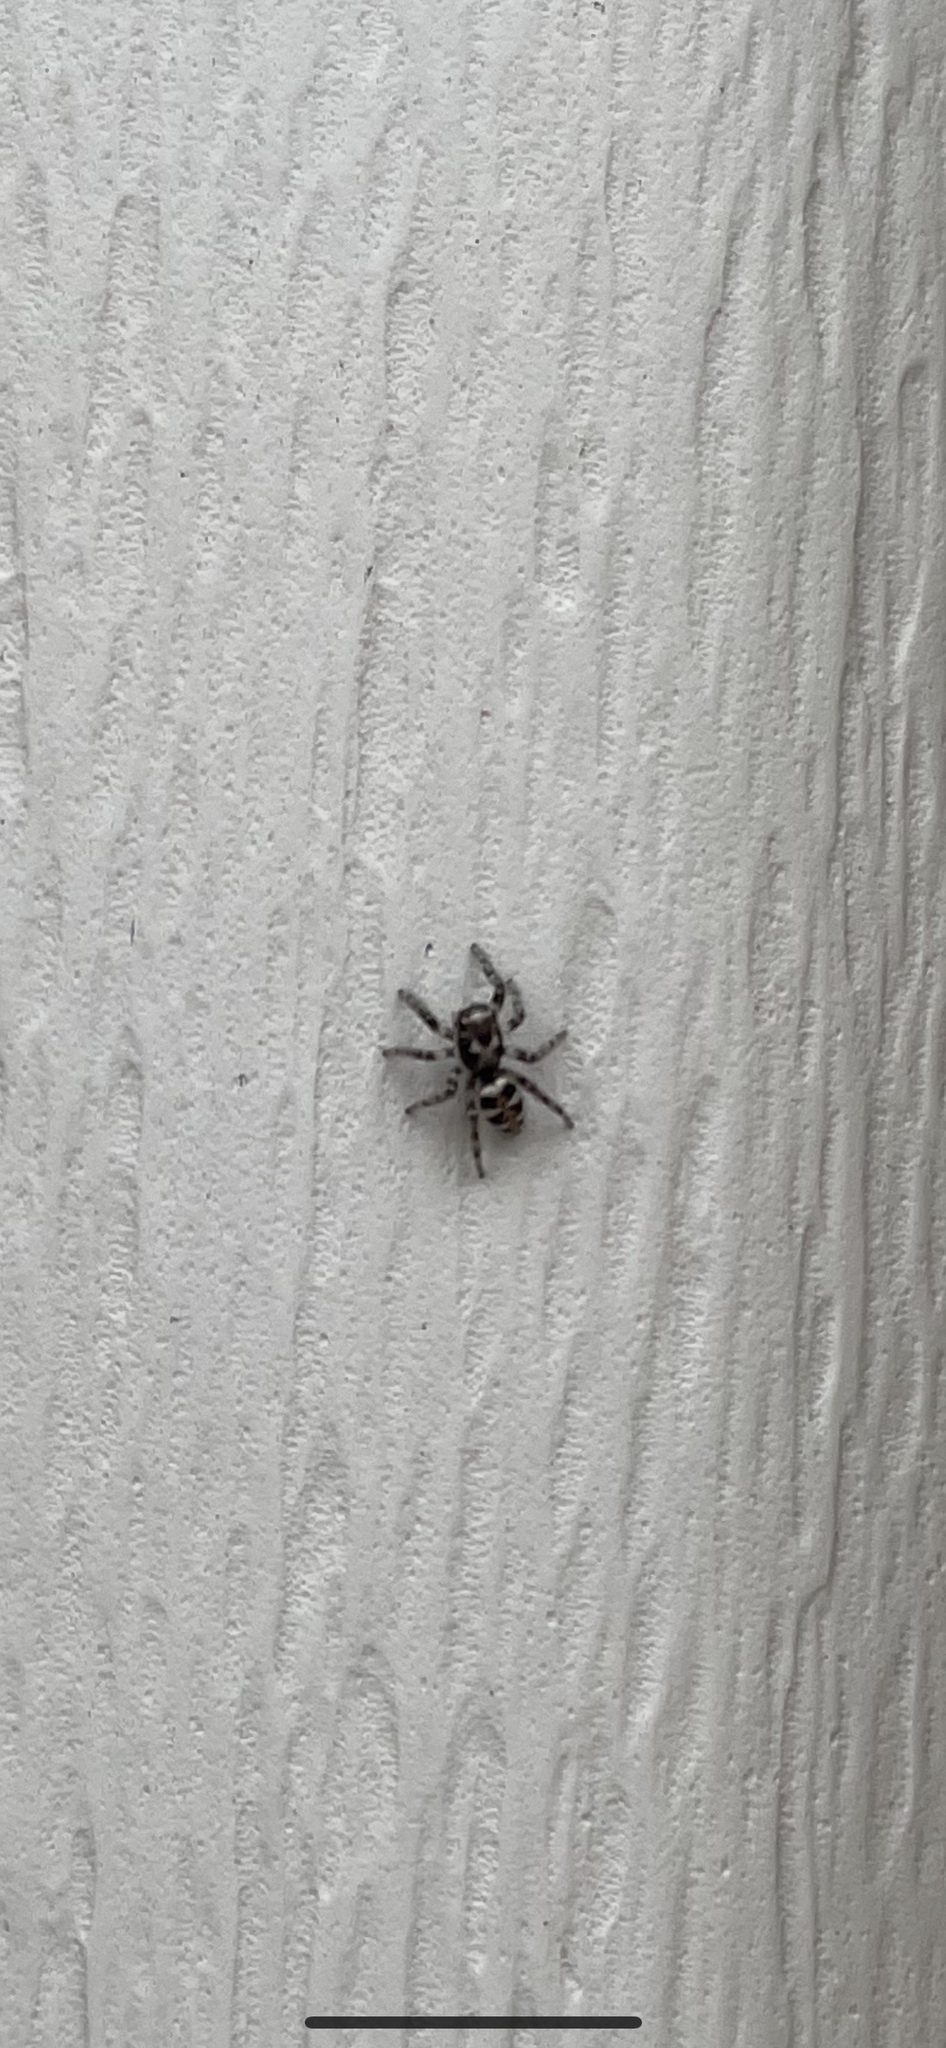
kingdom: Animalia
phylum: Arthropoda
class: Arachnida
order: Araneae
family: Salticidae
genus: Salticus
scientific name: Salticus scenicus
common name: Zebra jumper
